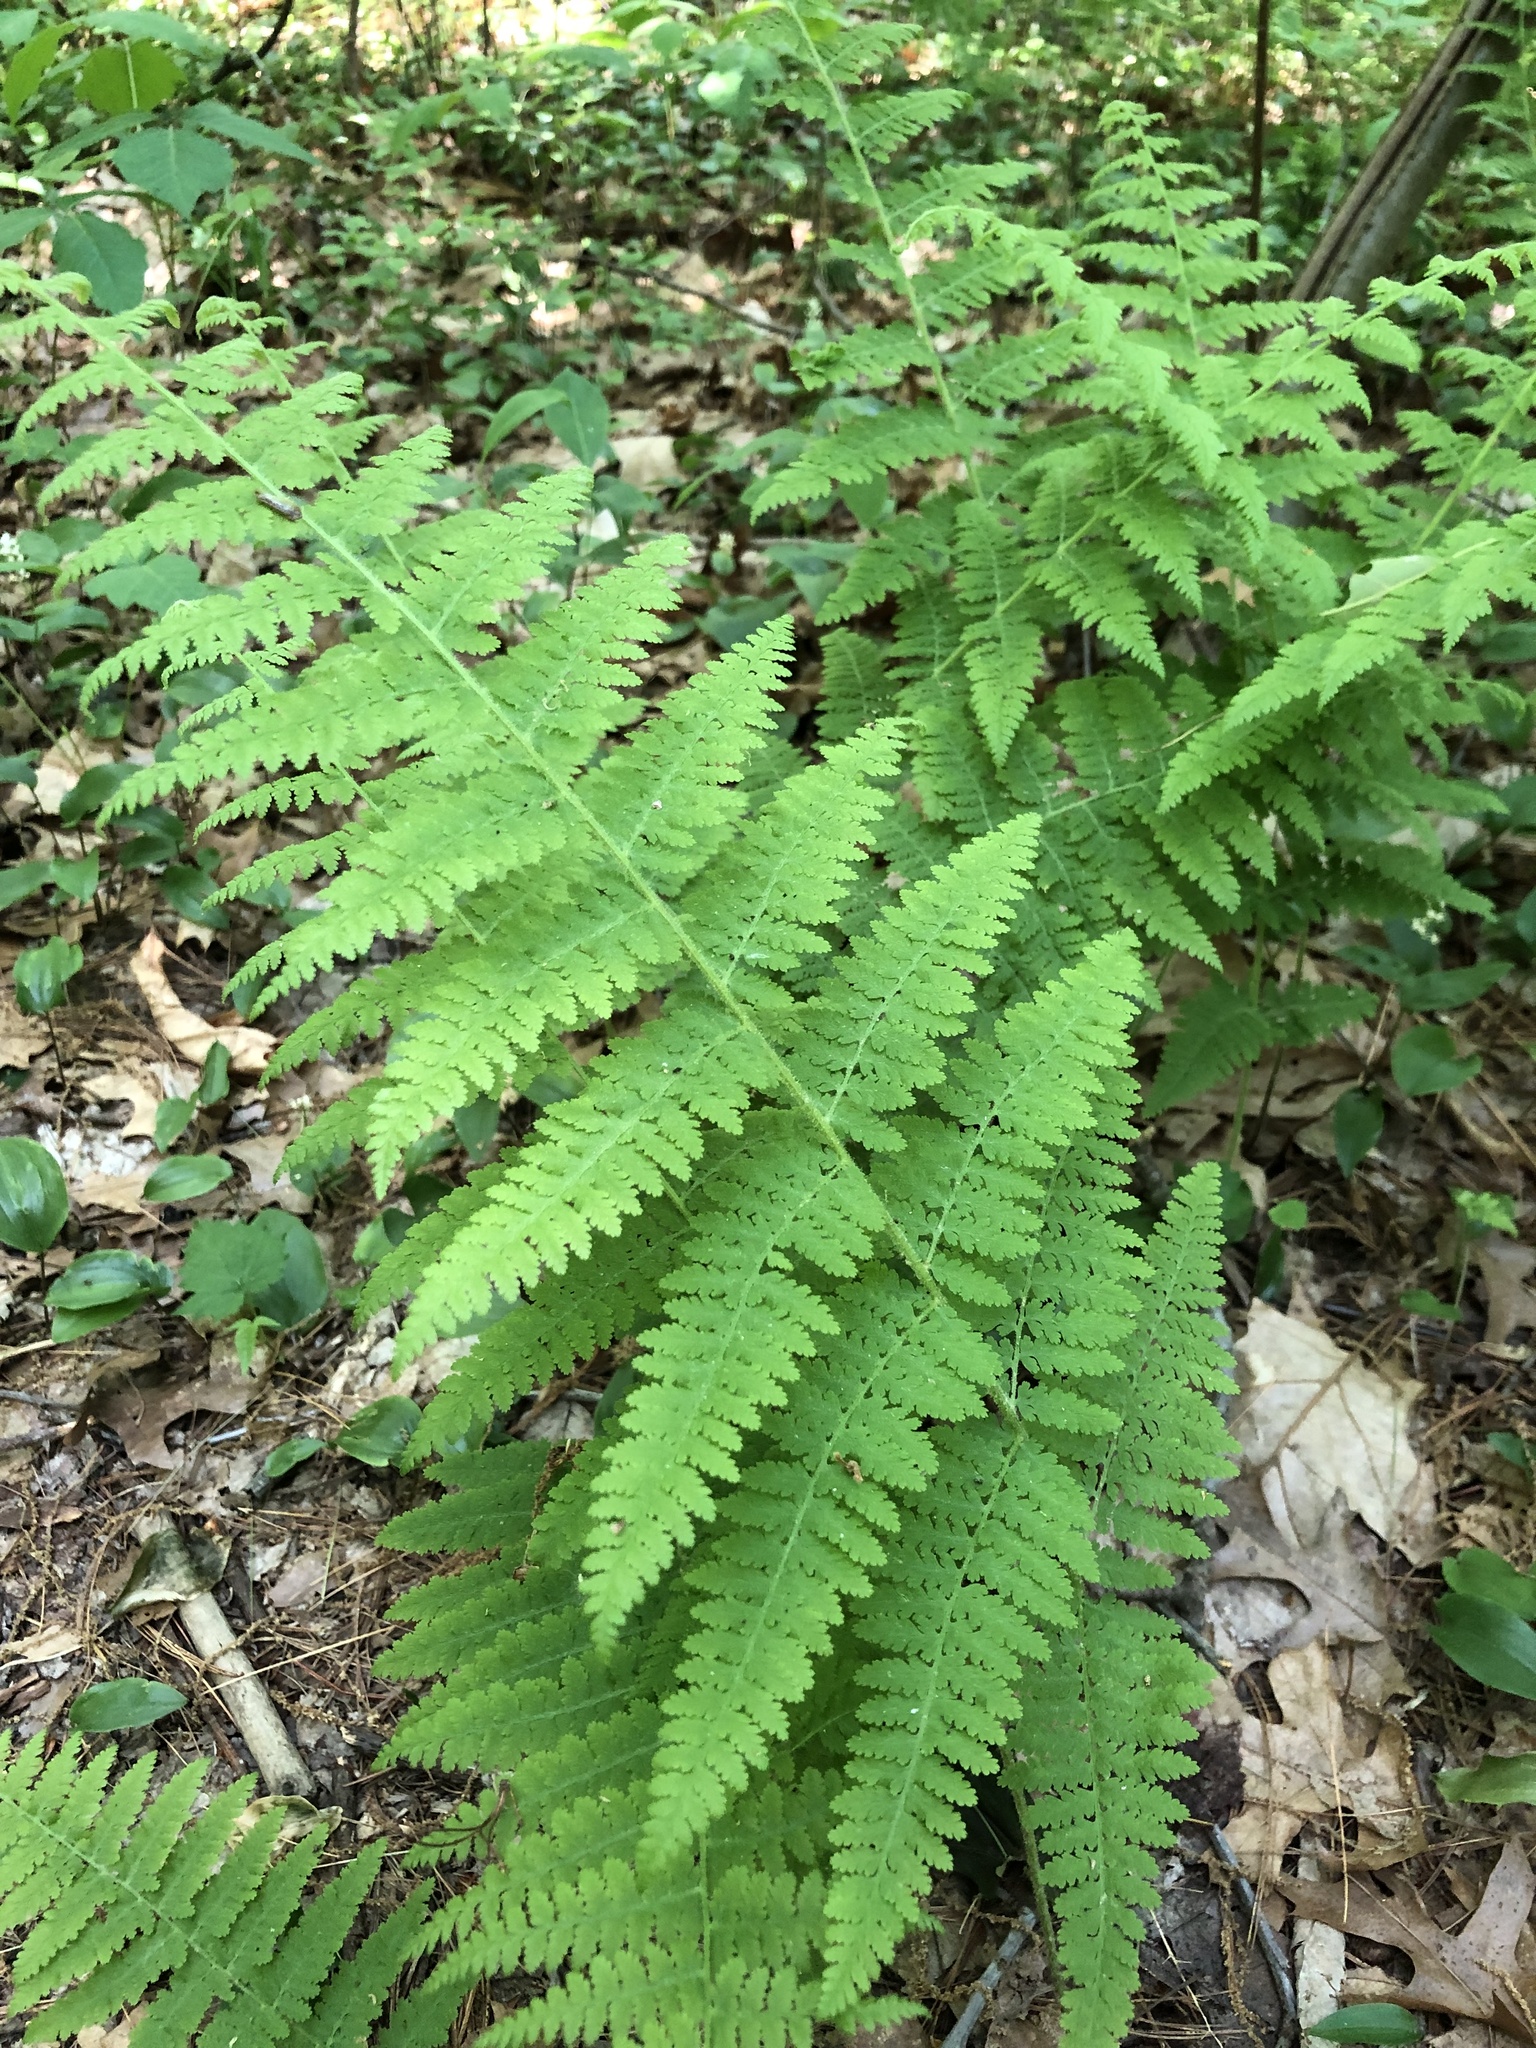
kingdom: Plantae
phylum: Tracheophyta
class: Polypodiopsida
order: Polypodiales
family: Dennstaedtiaceae
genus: Sitobolium
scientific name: Sitobolium punctilobum
